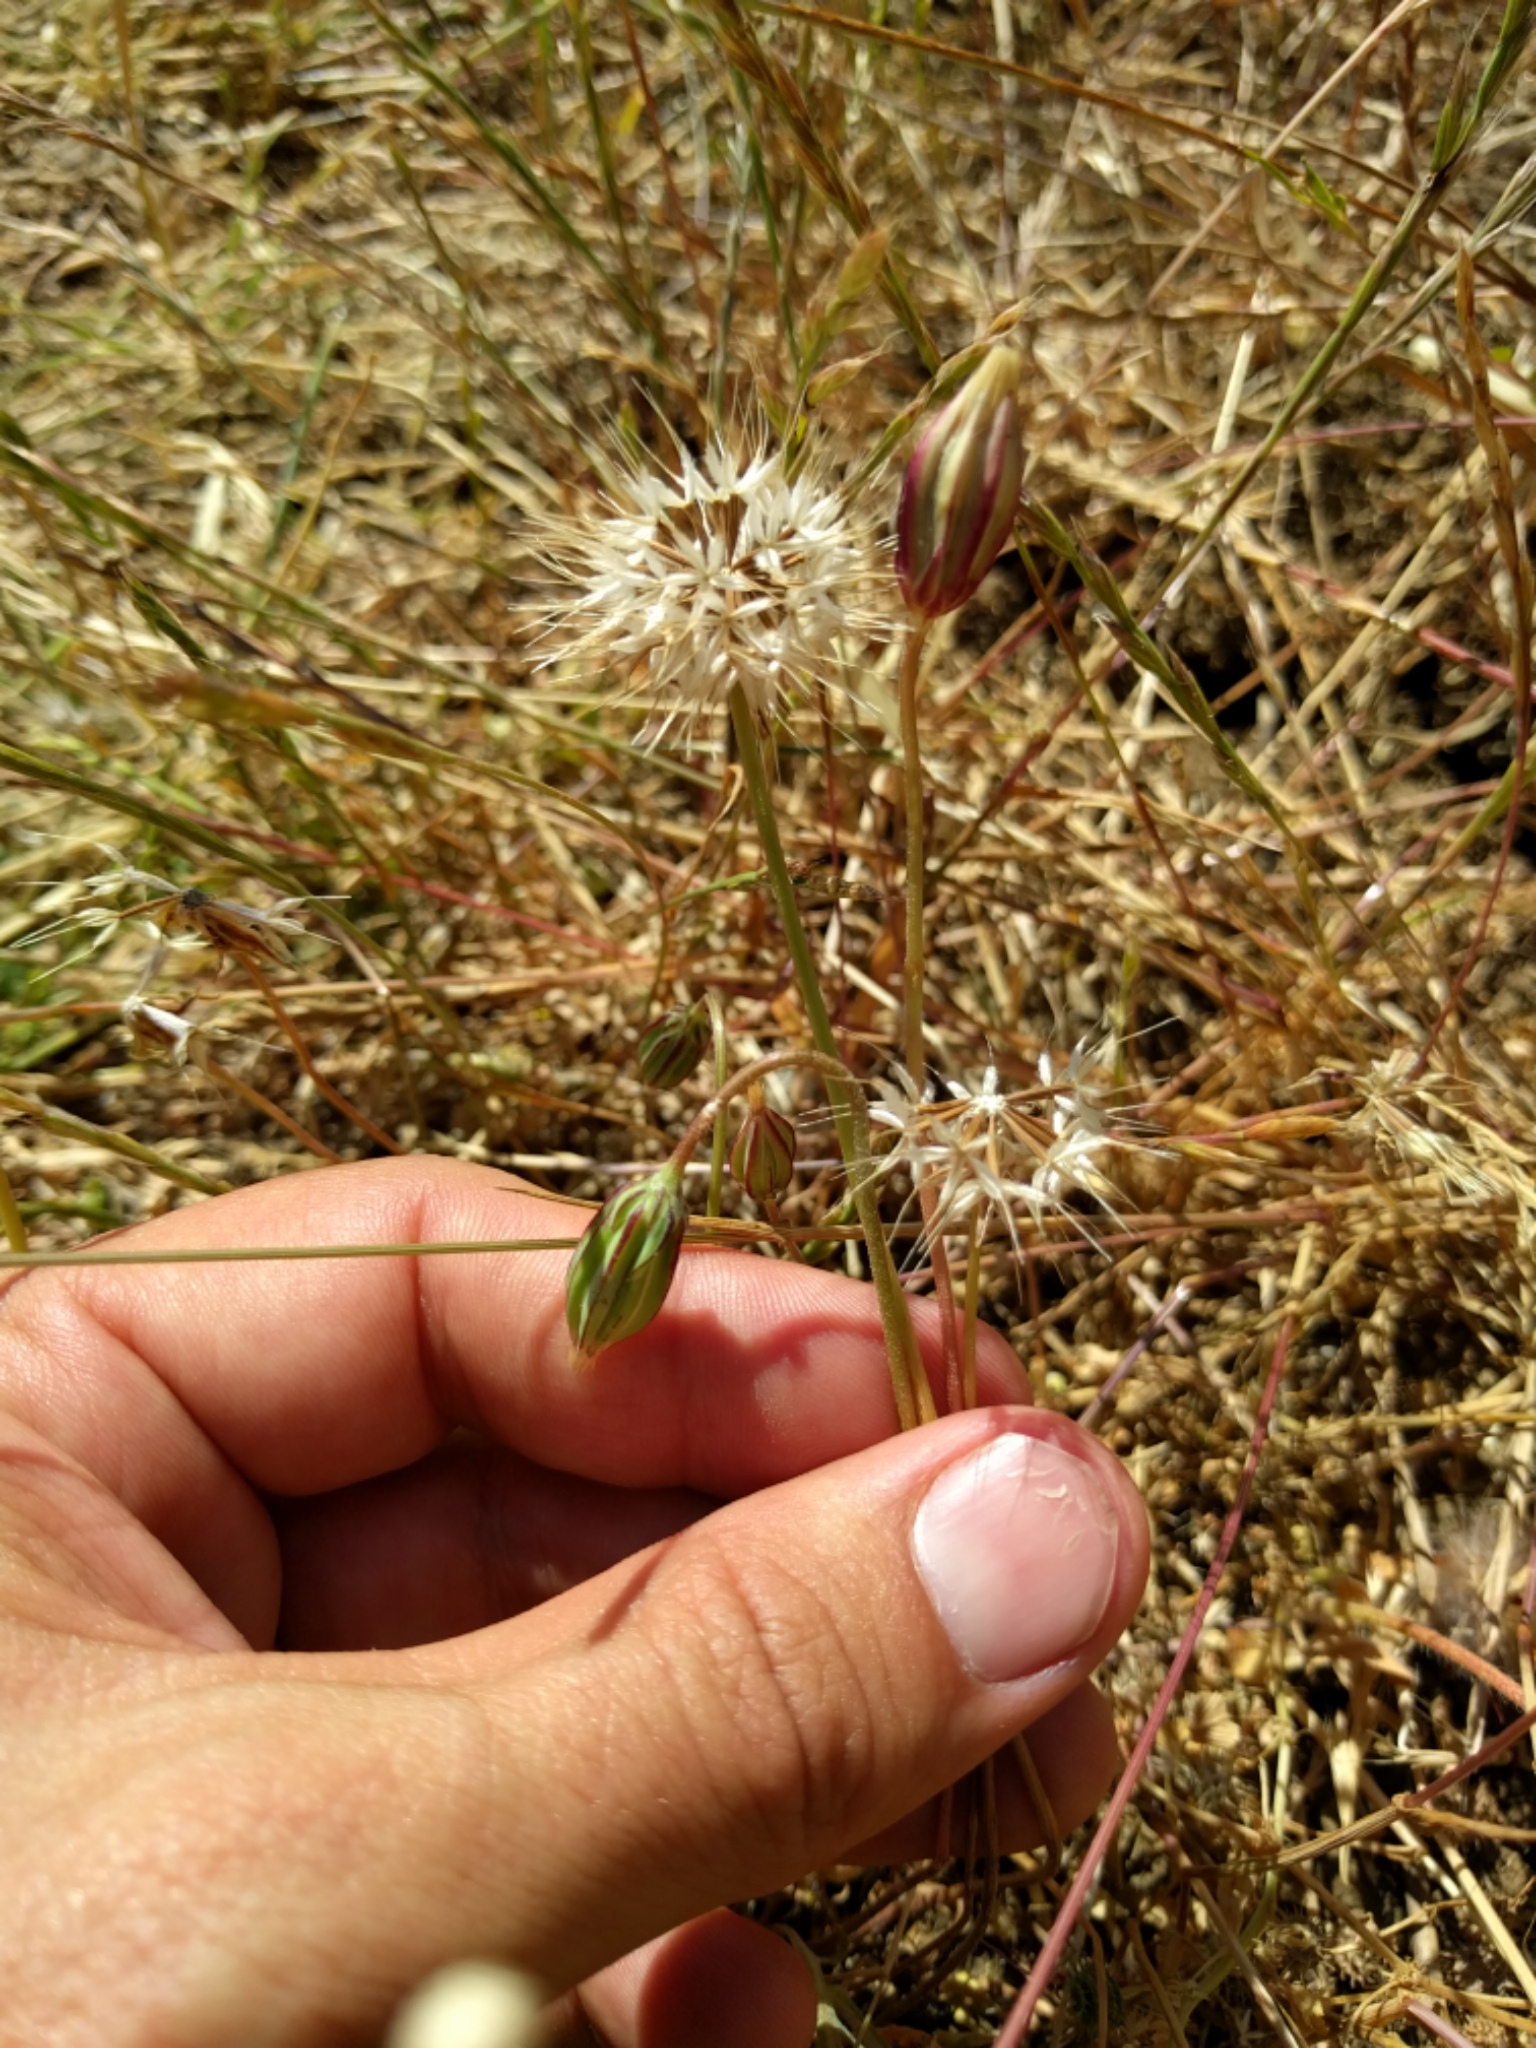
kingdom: Plantae
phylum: Tracheophyta
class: Magnoliopsida
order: Asterales
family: Asteraceae
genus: Microseris
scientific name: Microseris douglasii
